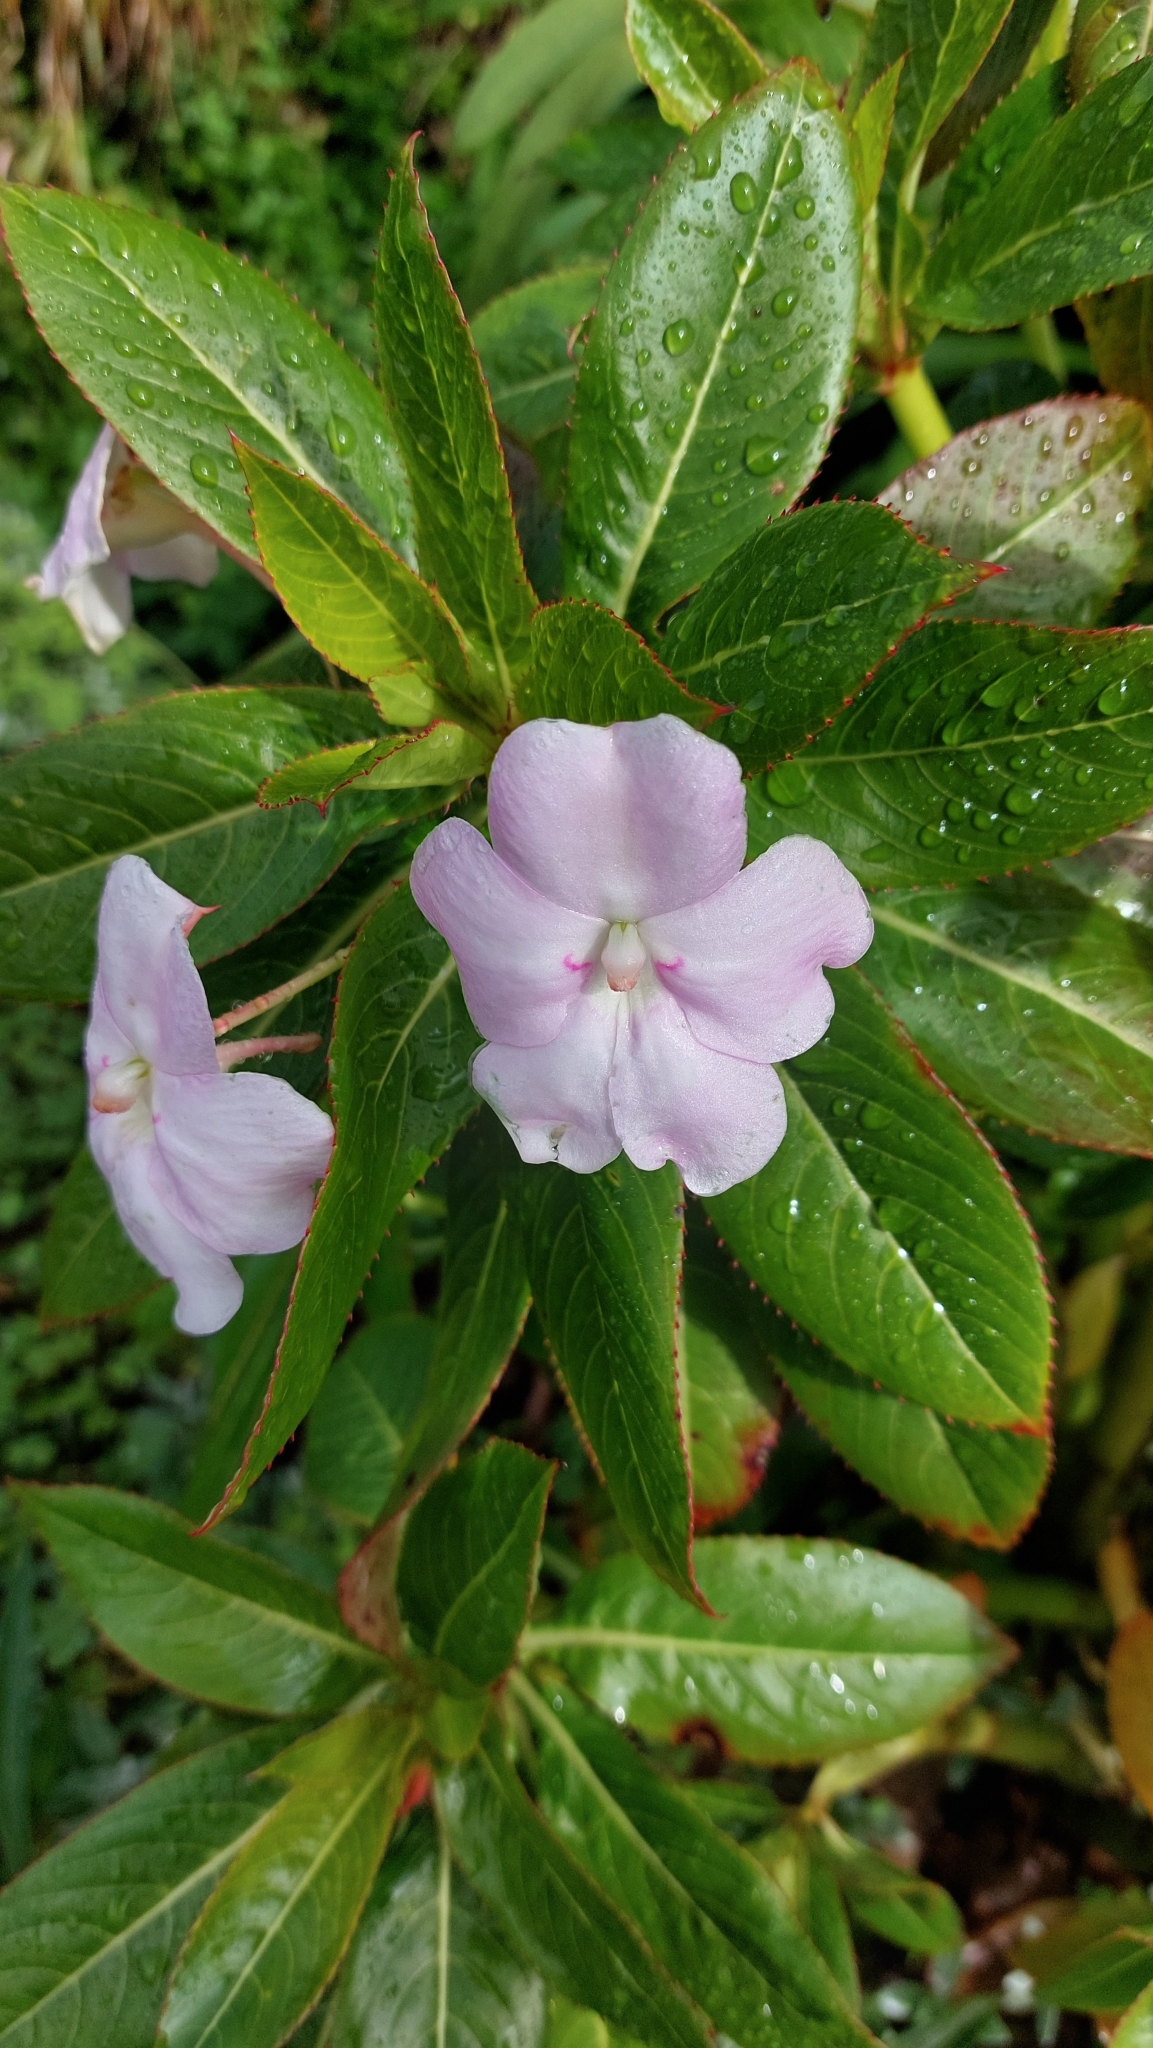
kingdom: Plantae
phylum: Tracheophyta
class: Magnoliopsida
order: Ericales
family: Balsaminaceae
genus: Impatiens
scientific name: Impatiens sodenii
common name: Oliver's touch-me-not
